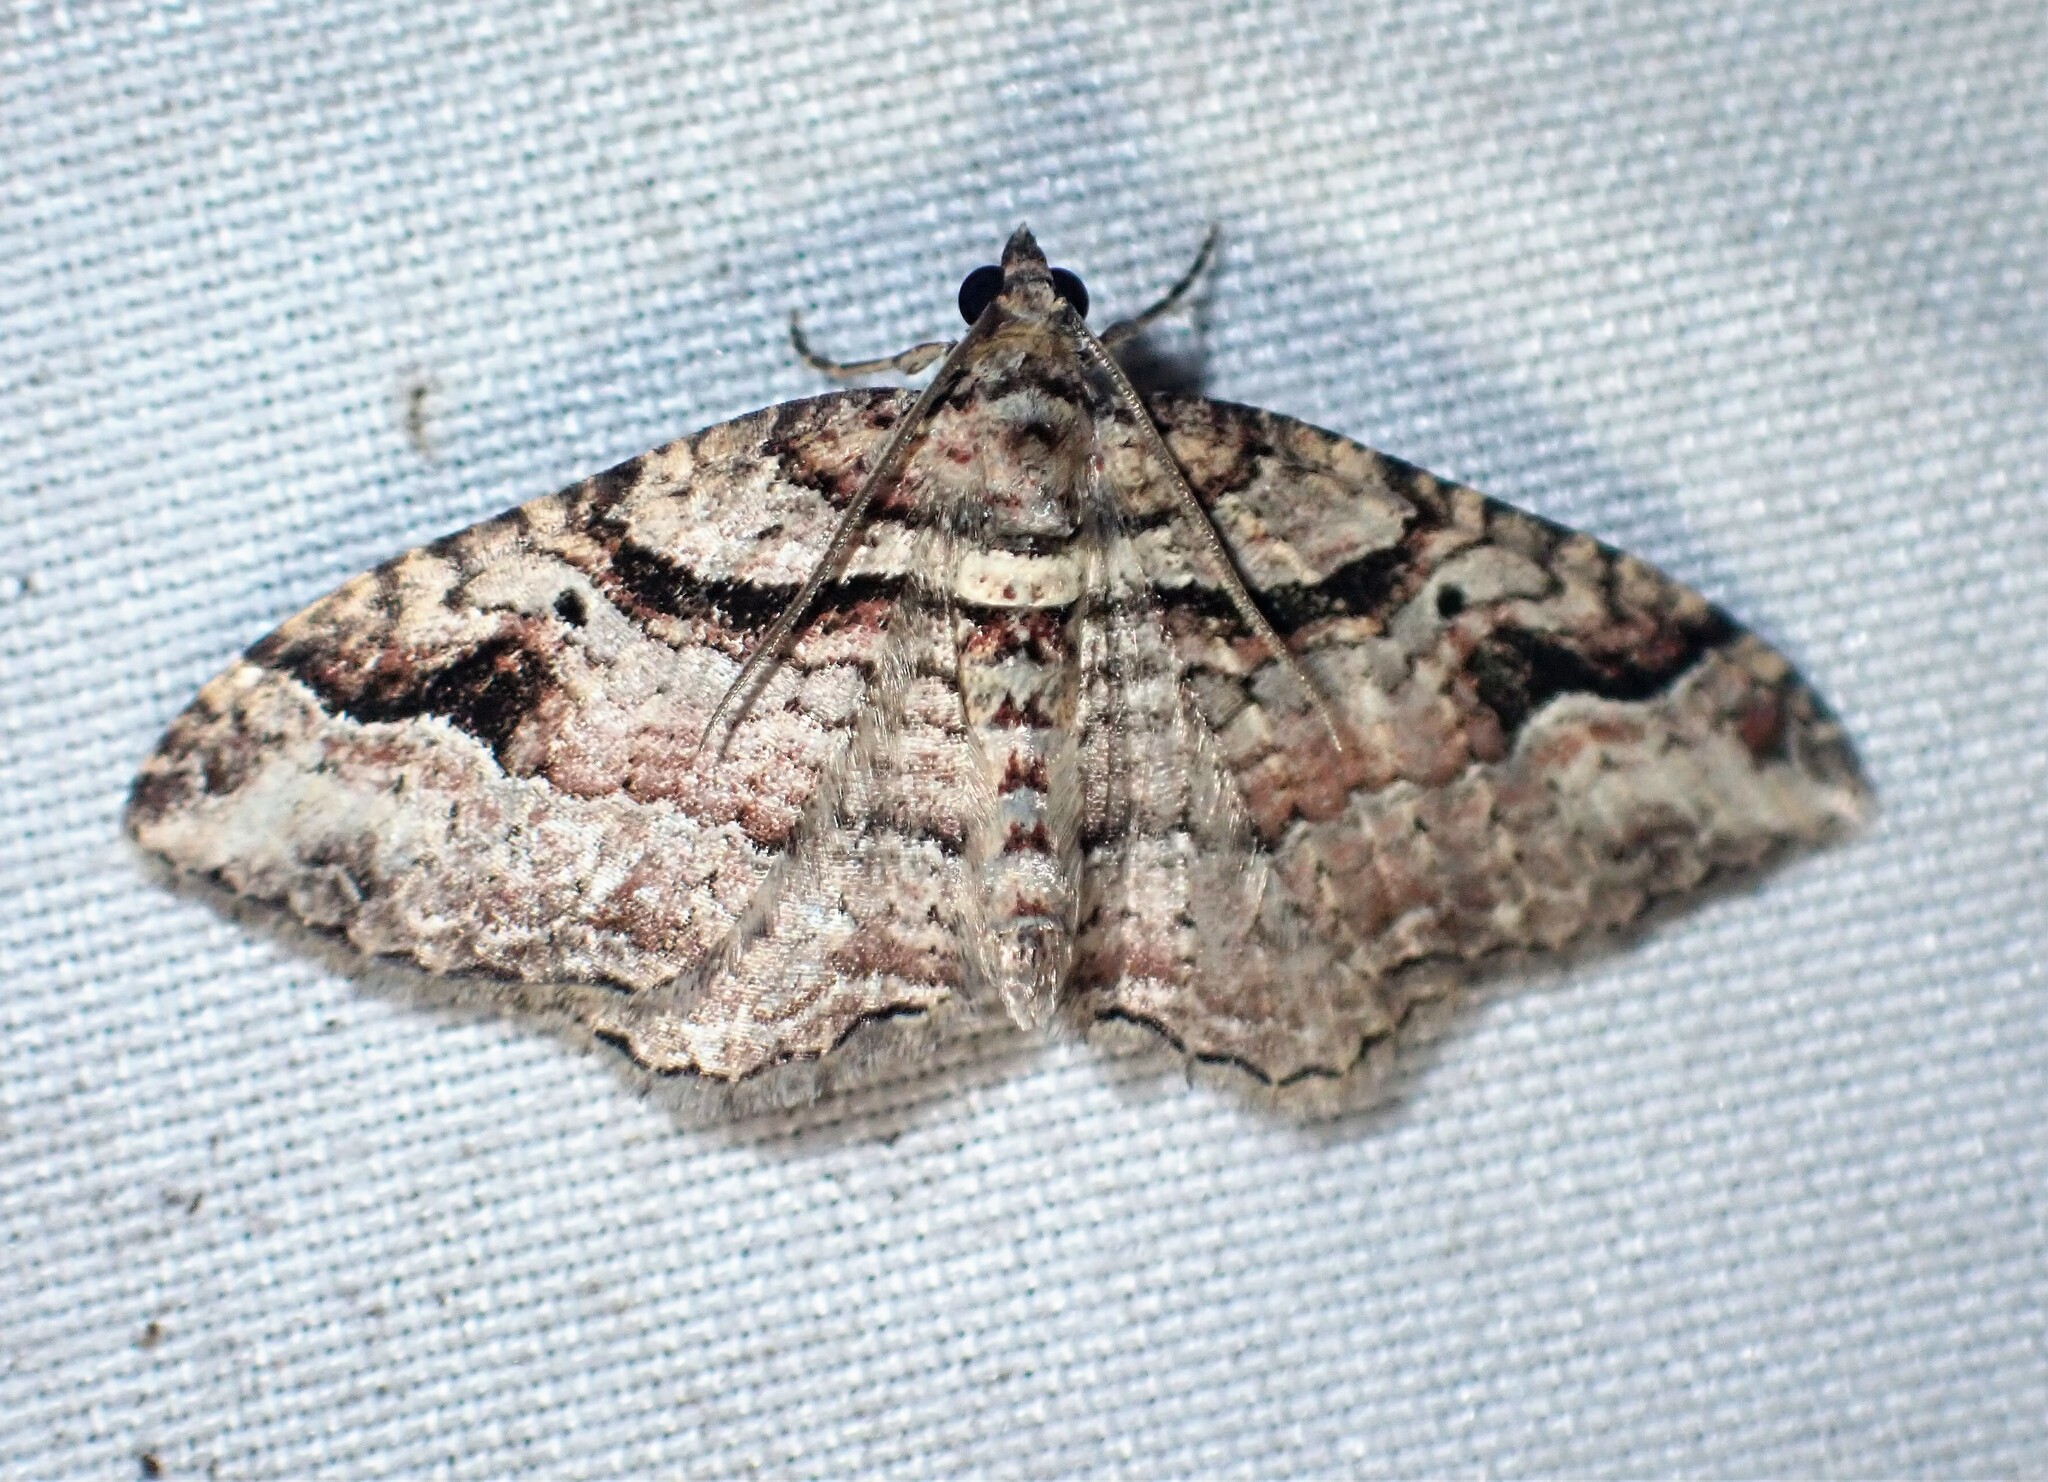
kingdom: Animalia
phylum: Arthropoda
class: Insecta
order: Lepidoptera
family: Geometridae
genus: Costaconvexa
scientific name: Costaconvexa centrostrigaria
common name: Bent-line carpet
